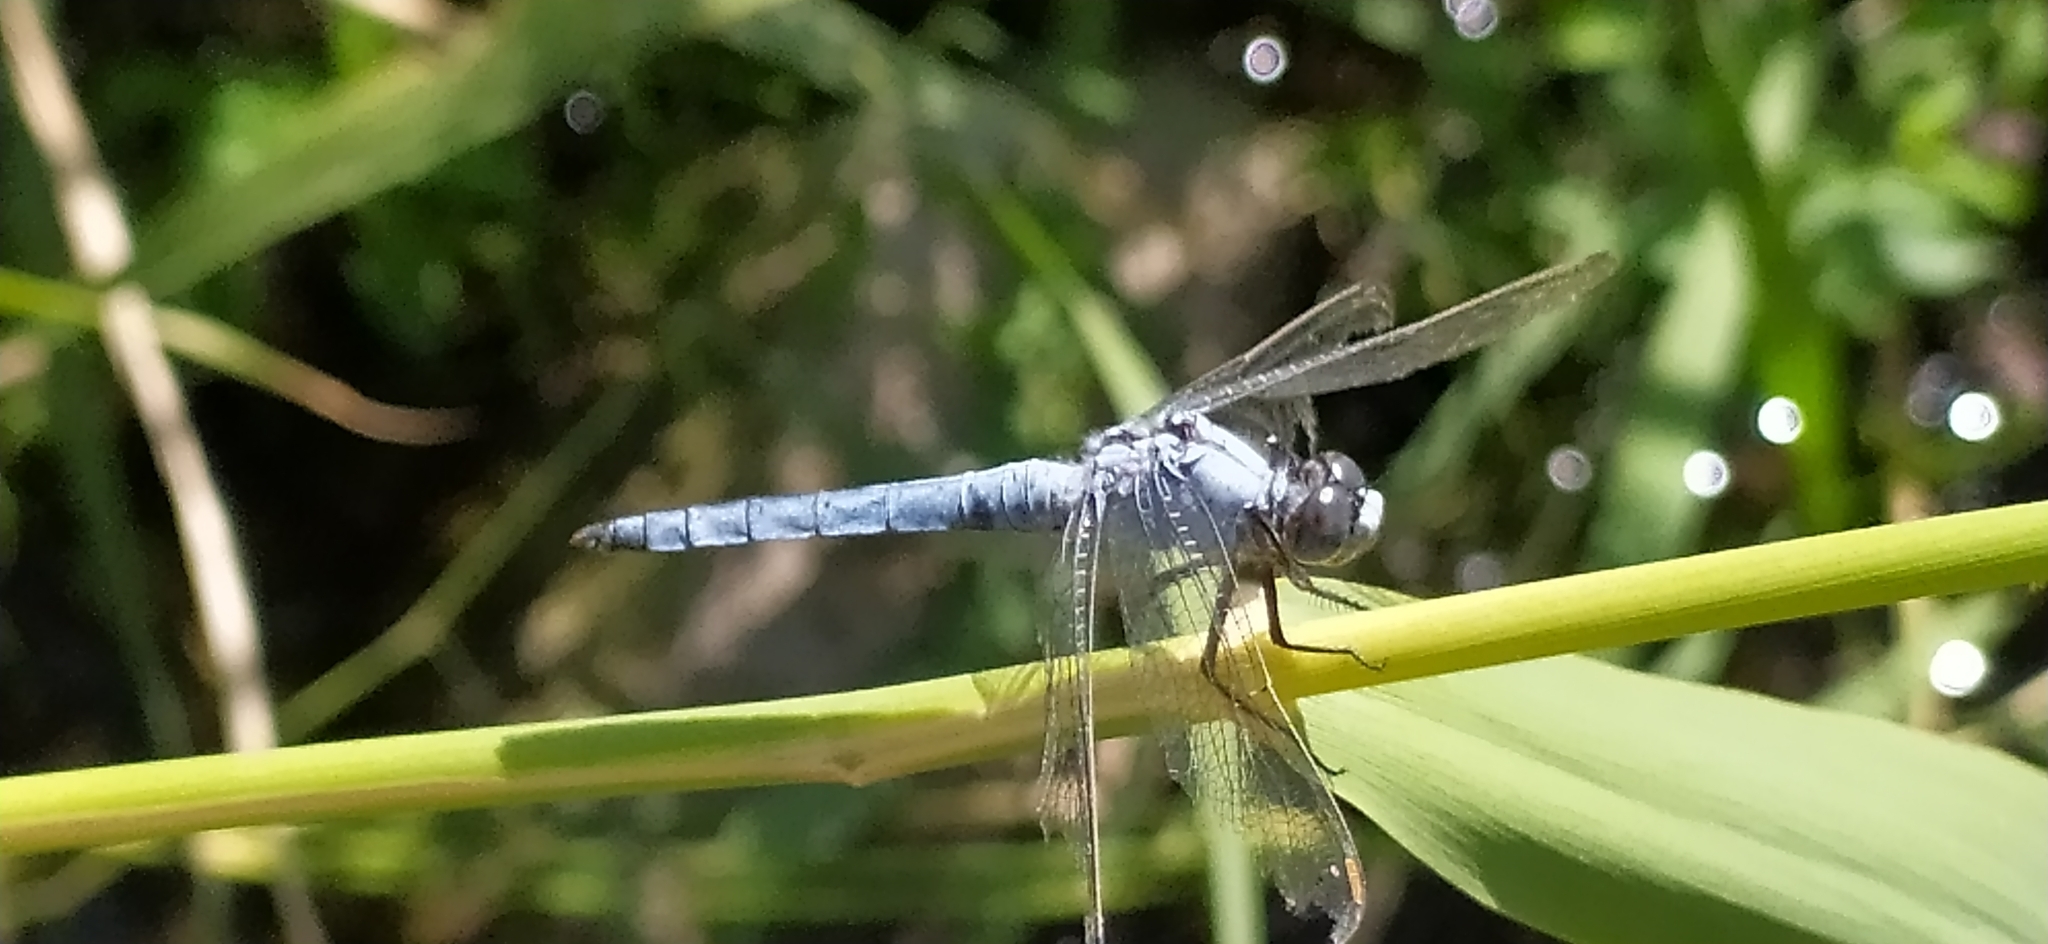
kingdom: Animalia
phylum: Arthropoda
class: Insecta
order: Odonata
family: Libellulidae
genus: Orthetrum
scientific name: Orthetrum brunneum
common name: Southern skimmer
